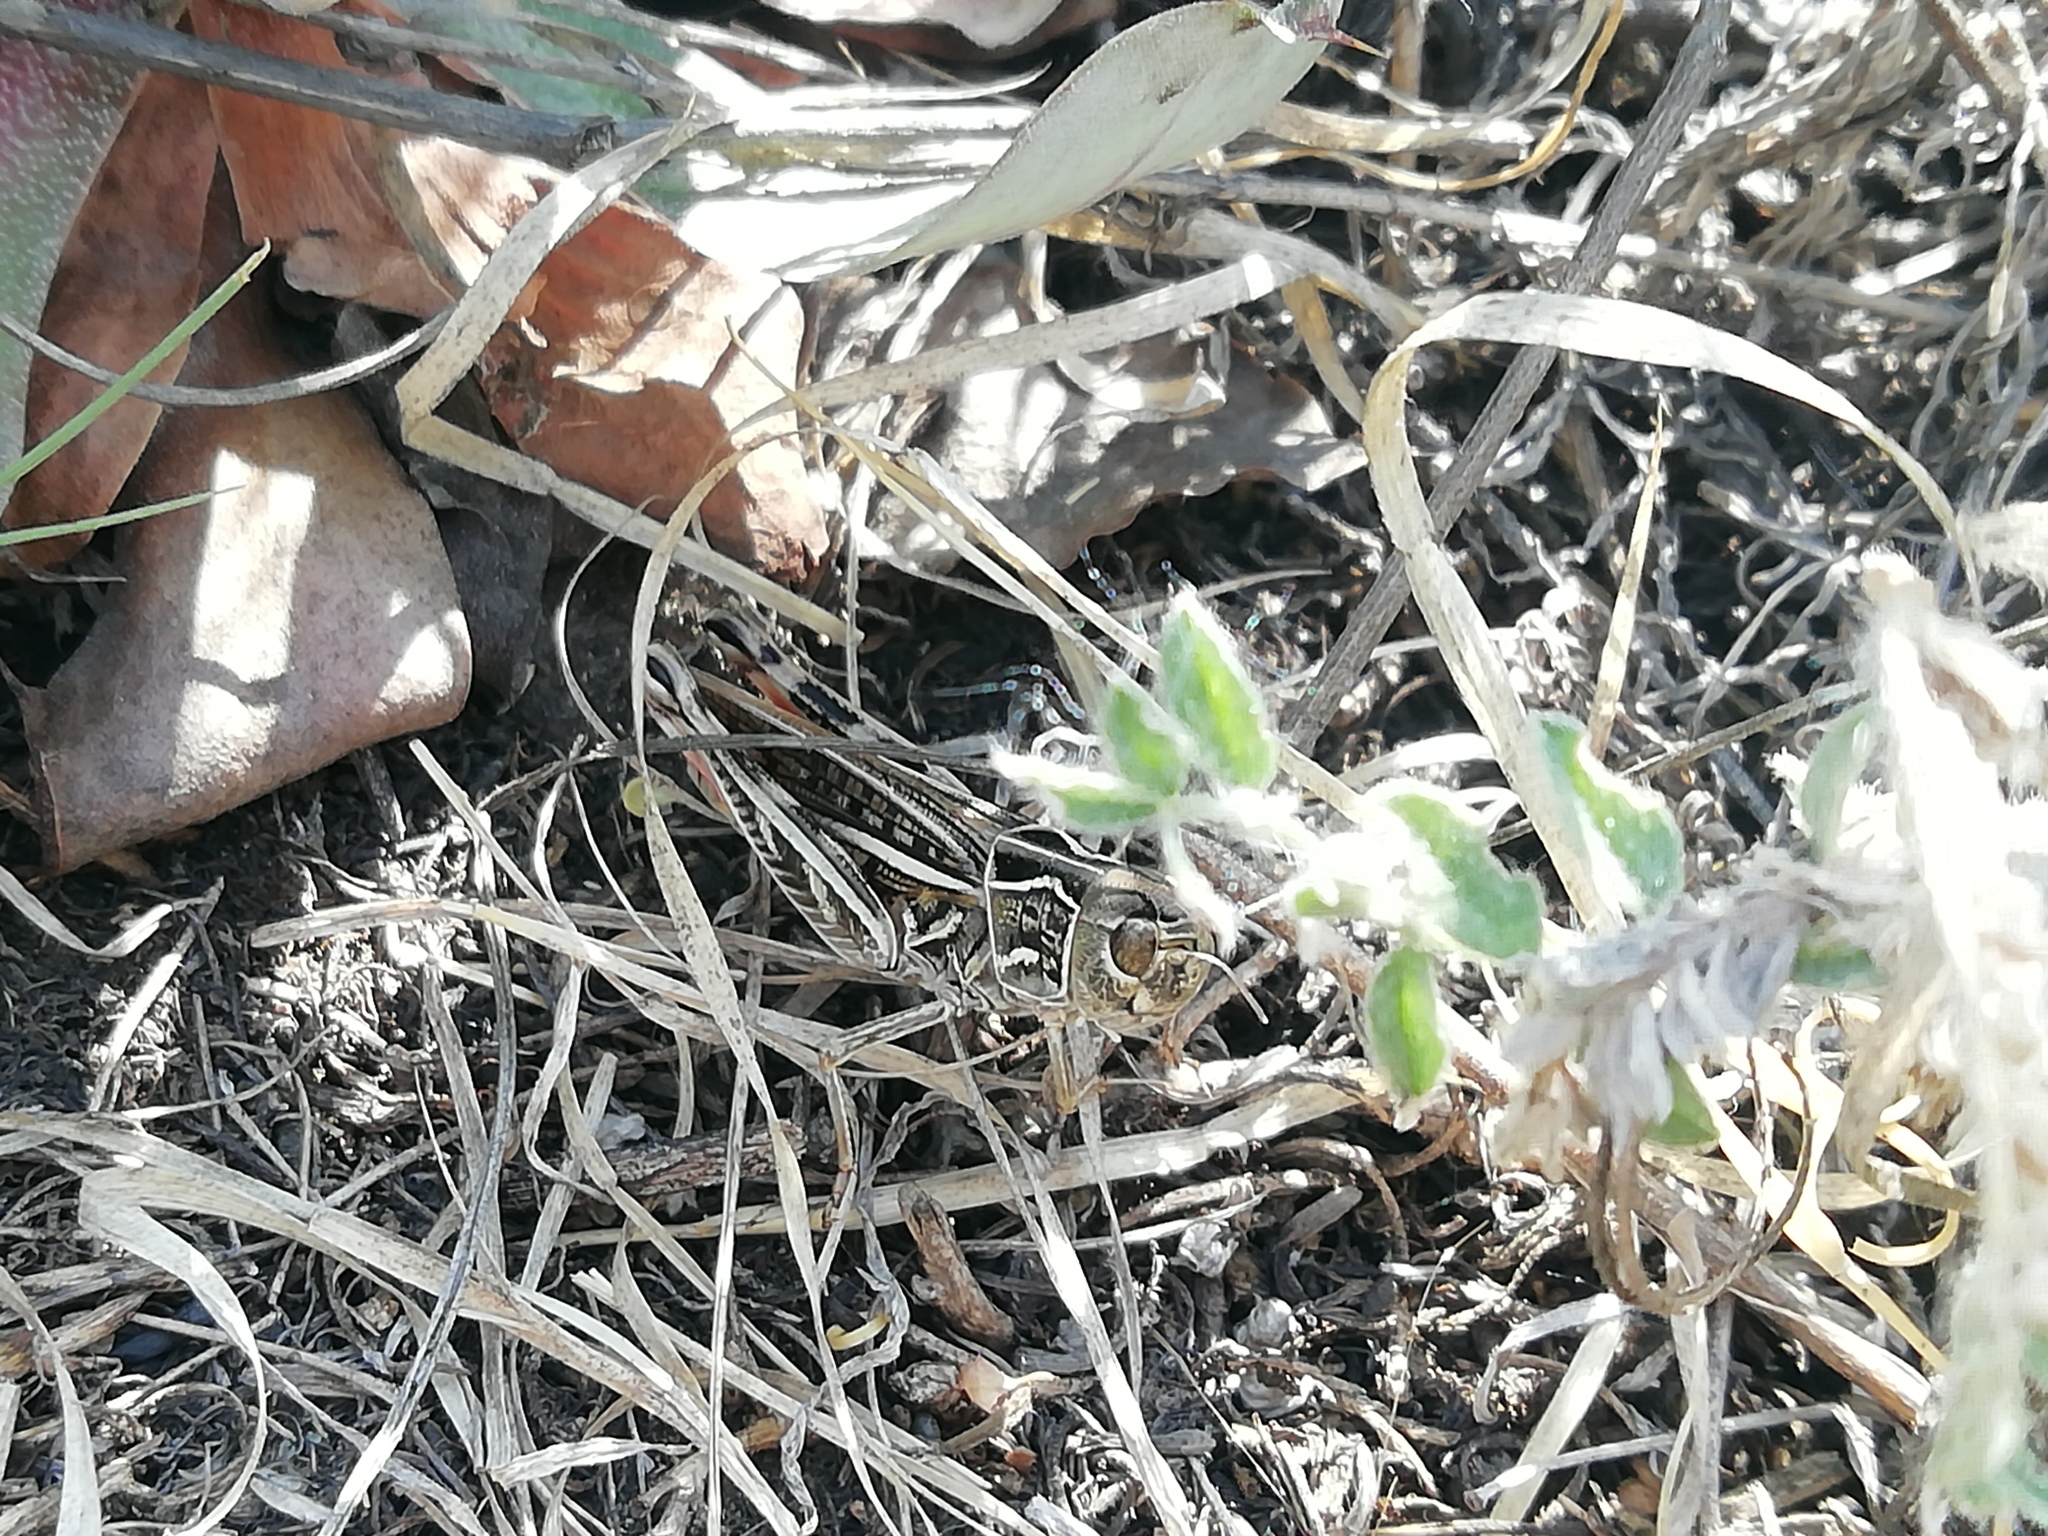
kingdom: Animalia
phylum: Arthropoda
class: Insecta
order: Orthoptera
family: Acrididae
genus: Arcyptera
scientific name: Arcyptera microptera
